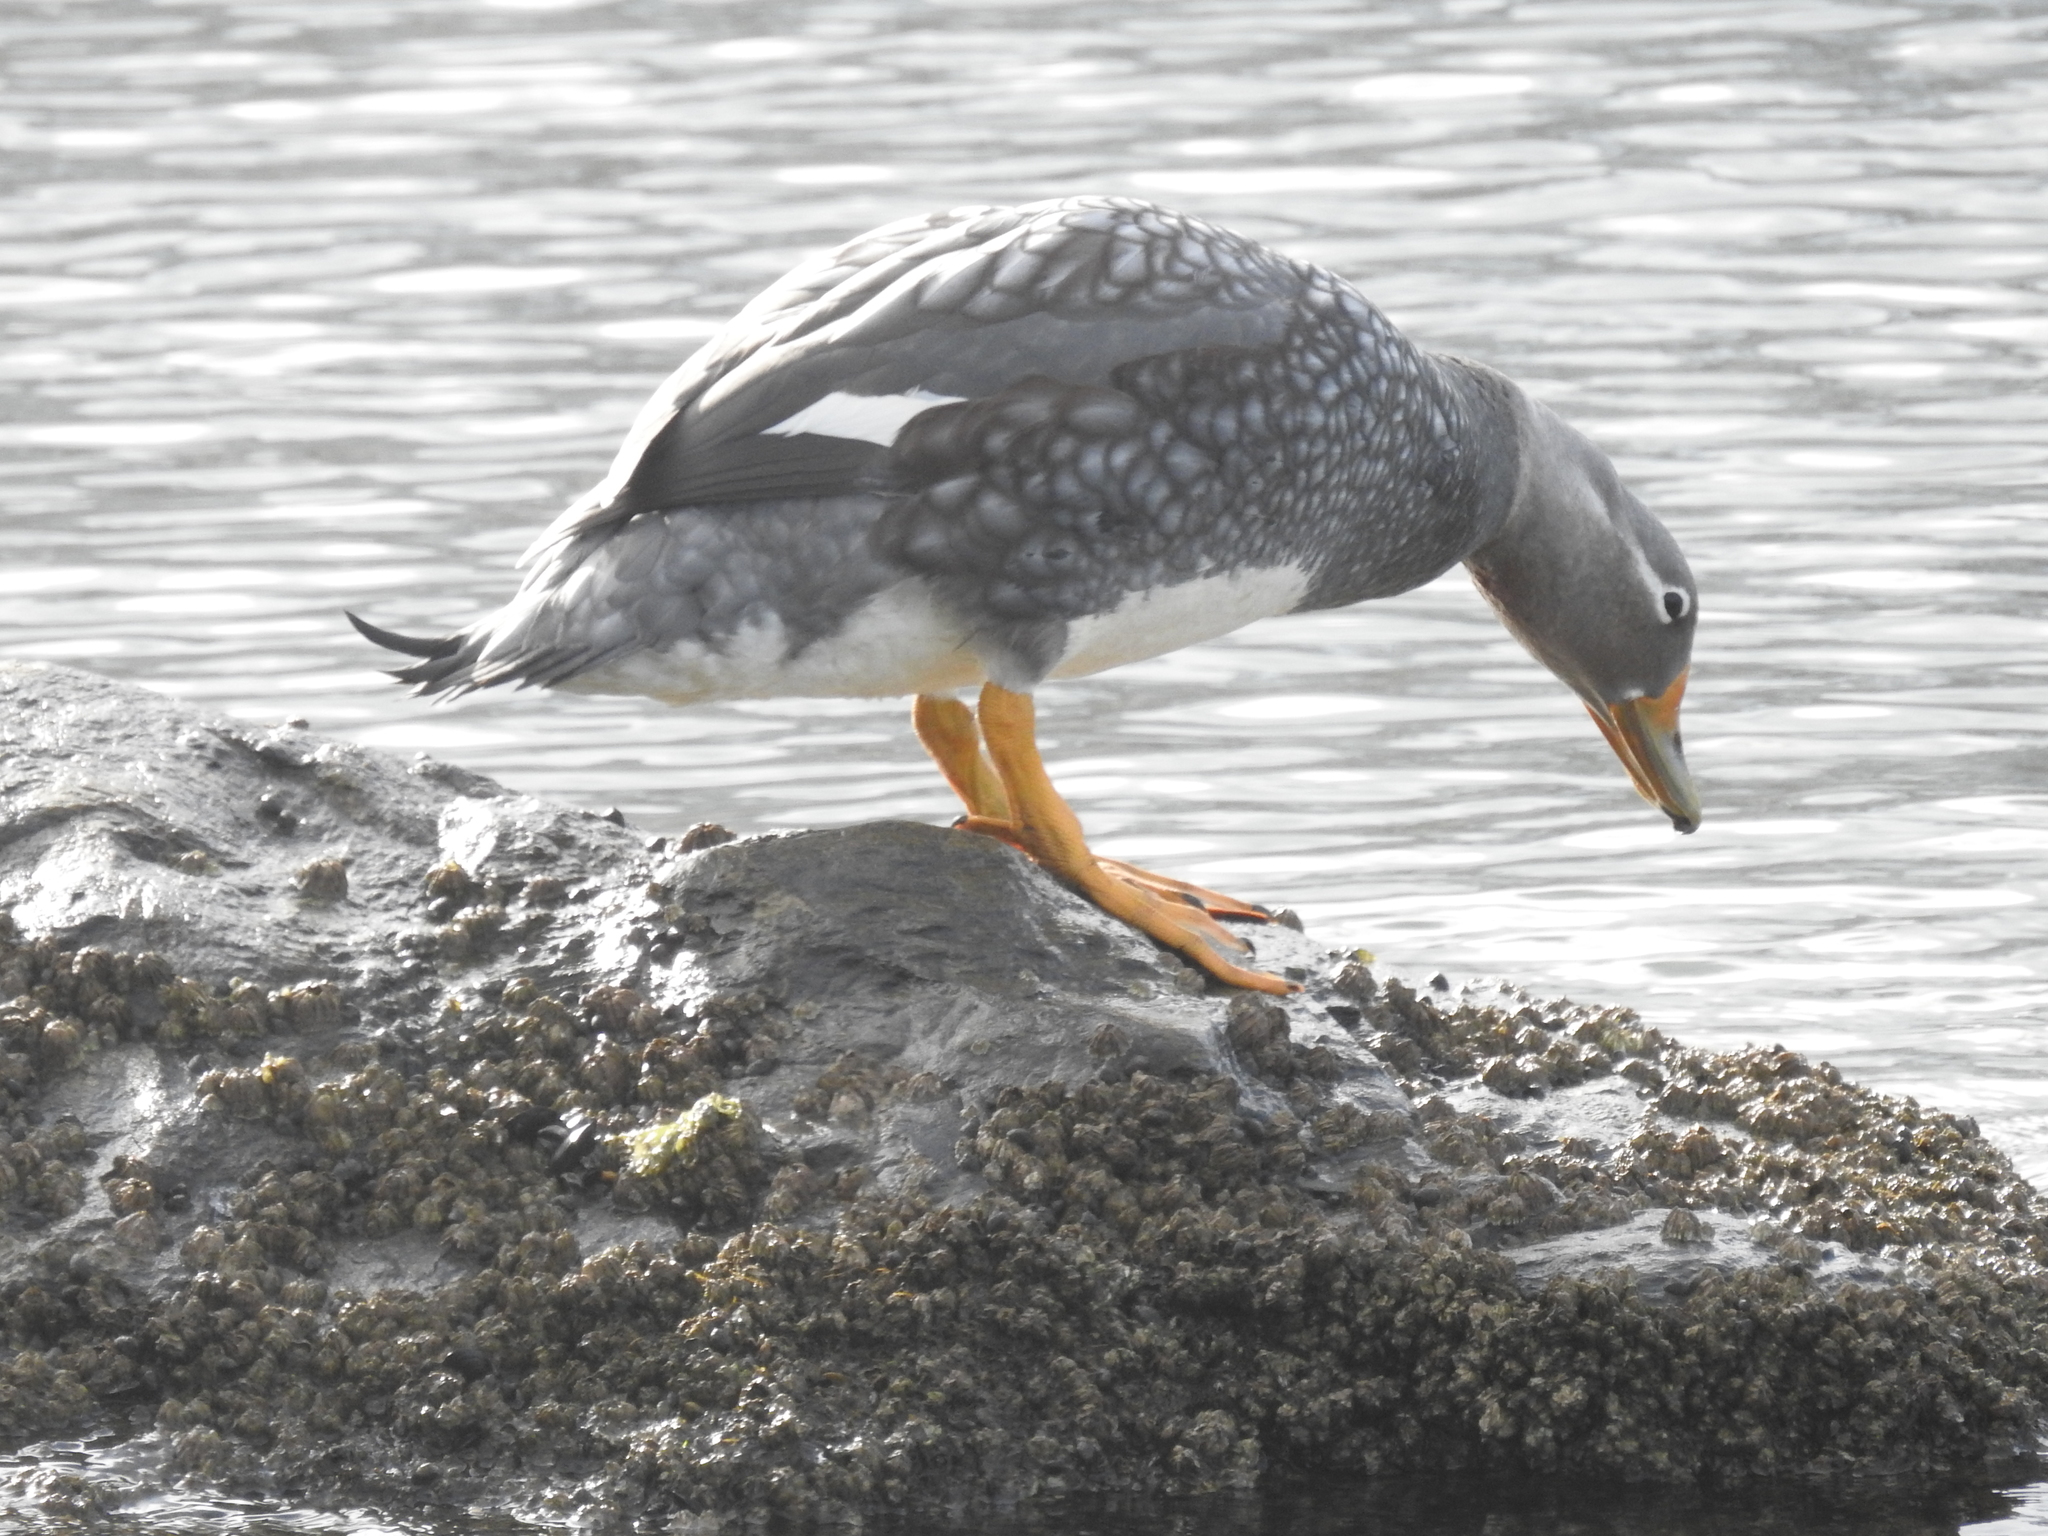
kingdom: Animalia
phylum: Chordata
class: Aves
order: Anseriformes
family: Anatidae
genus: Tachyeres
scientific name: Tachyeres patachonicus
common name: Flying steamer duck
